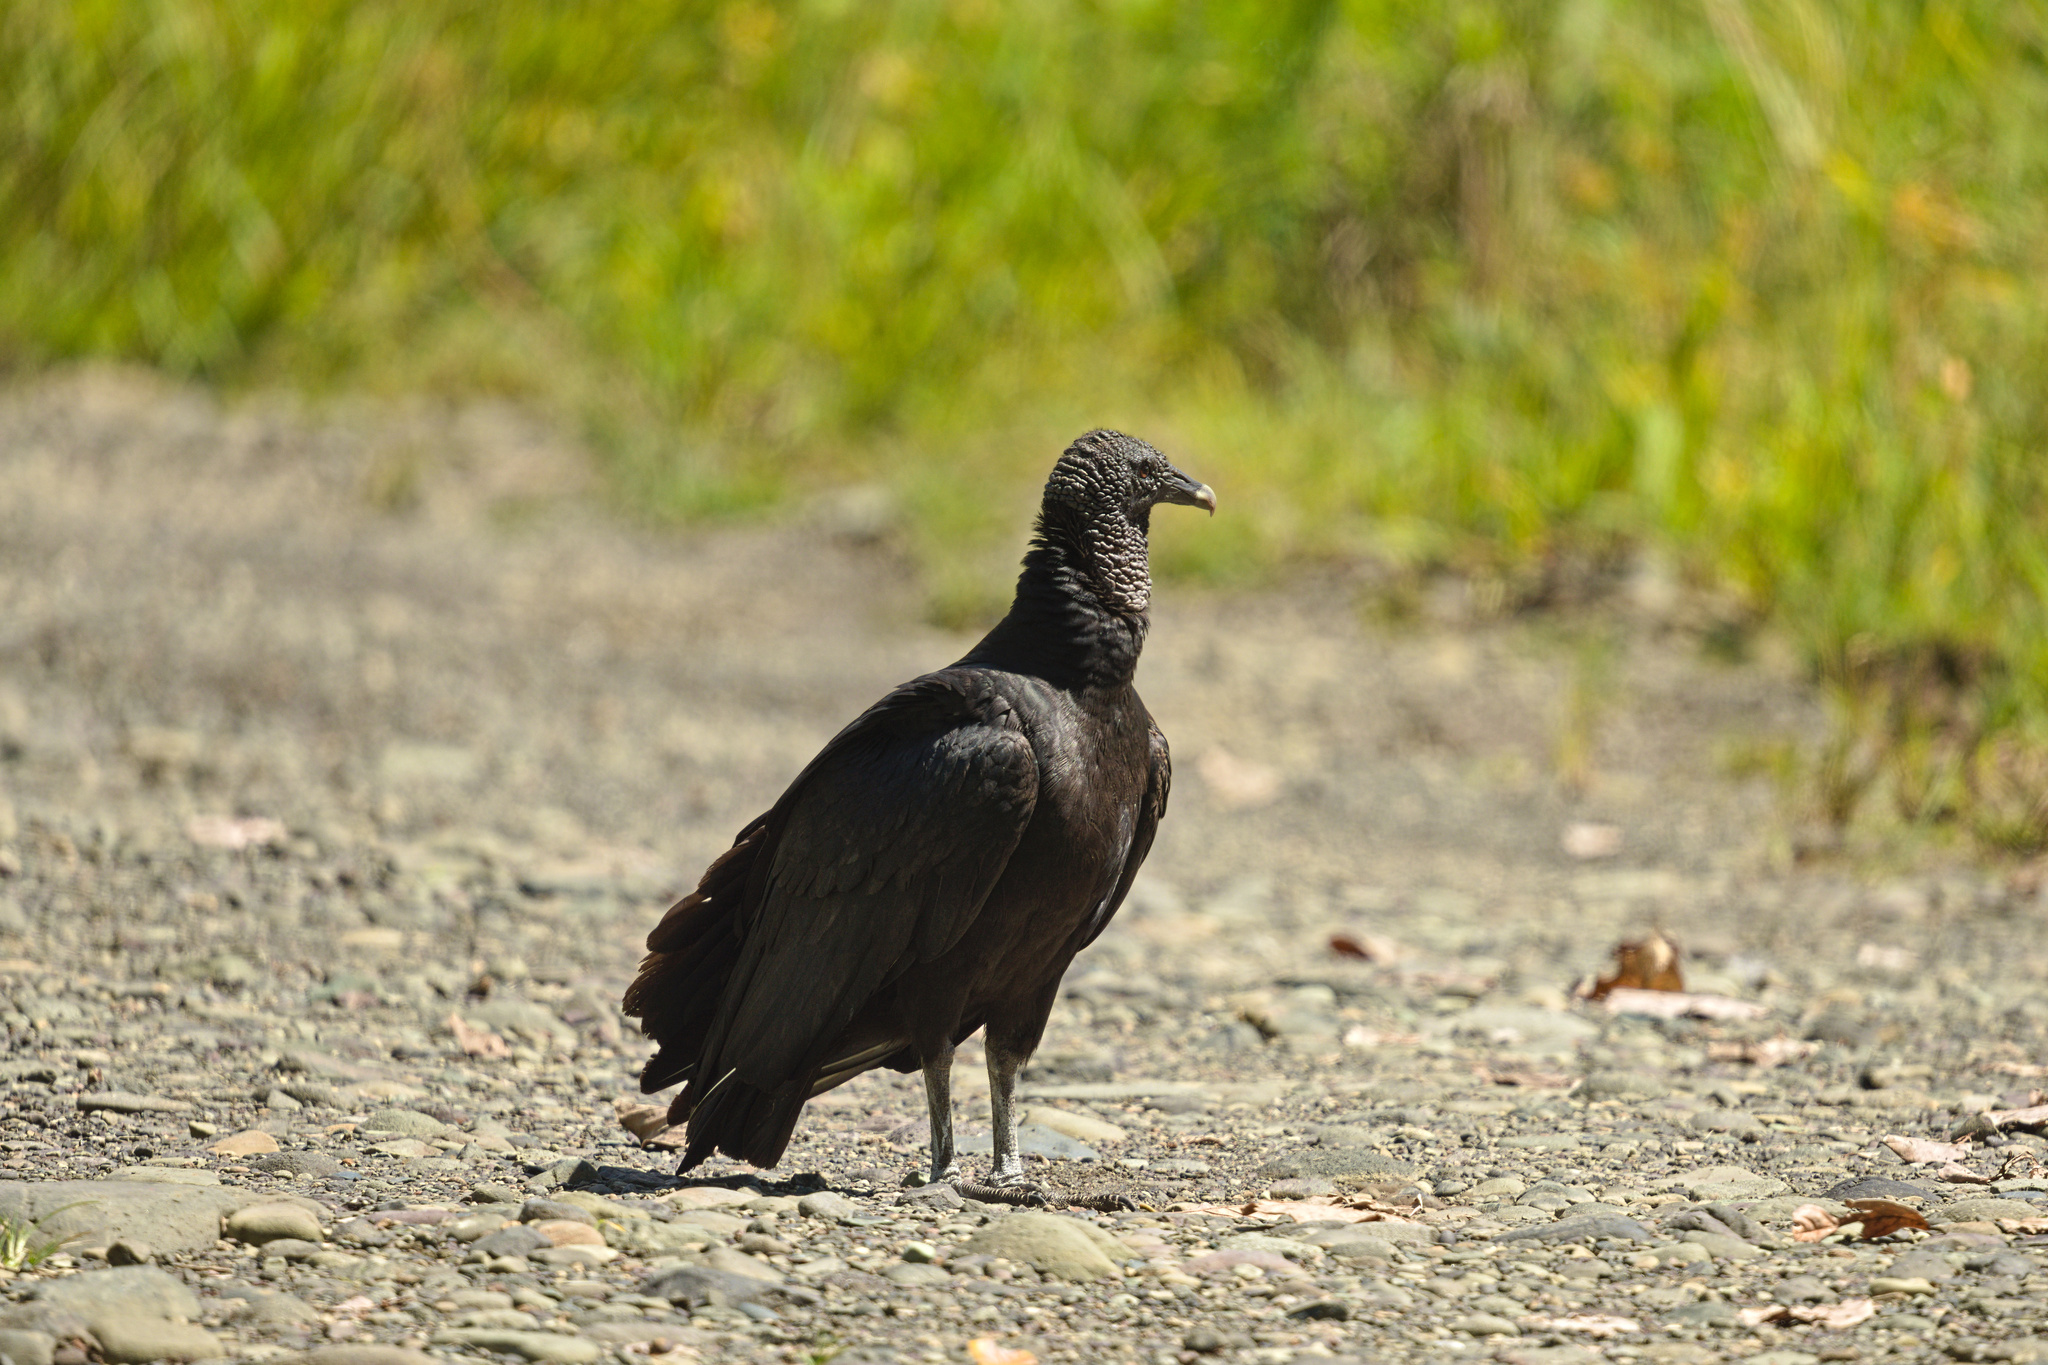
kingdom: Animalia
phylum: Chordata
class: Aves
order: Accipitriformes
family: Cathartidae
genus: Coragyps
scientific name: Coragyps atratus
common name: Black vulture
